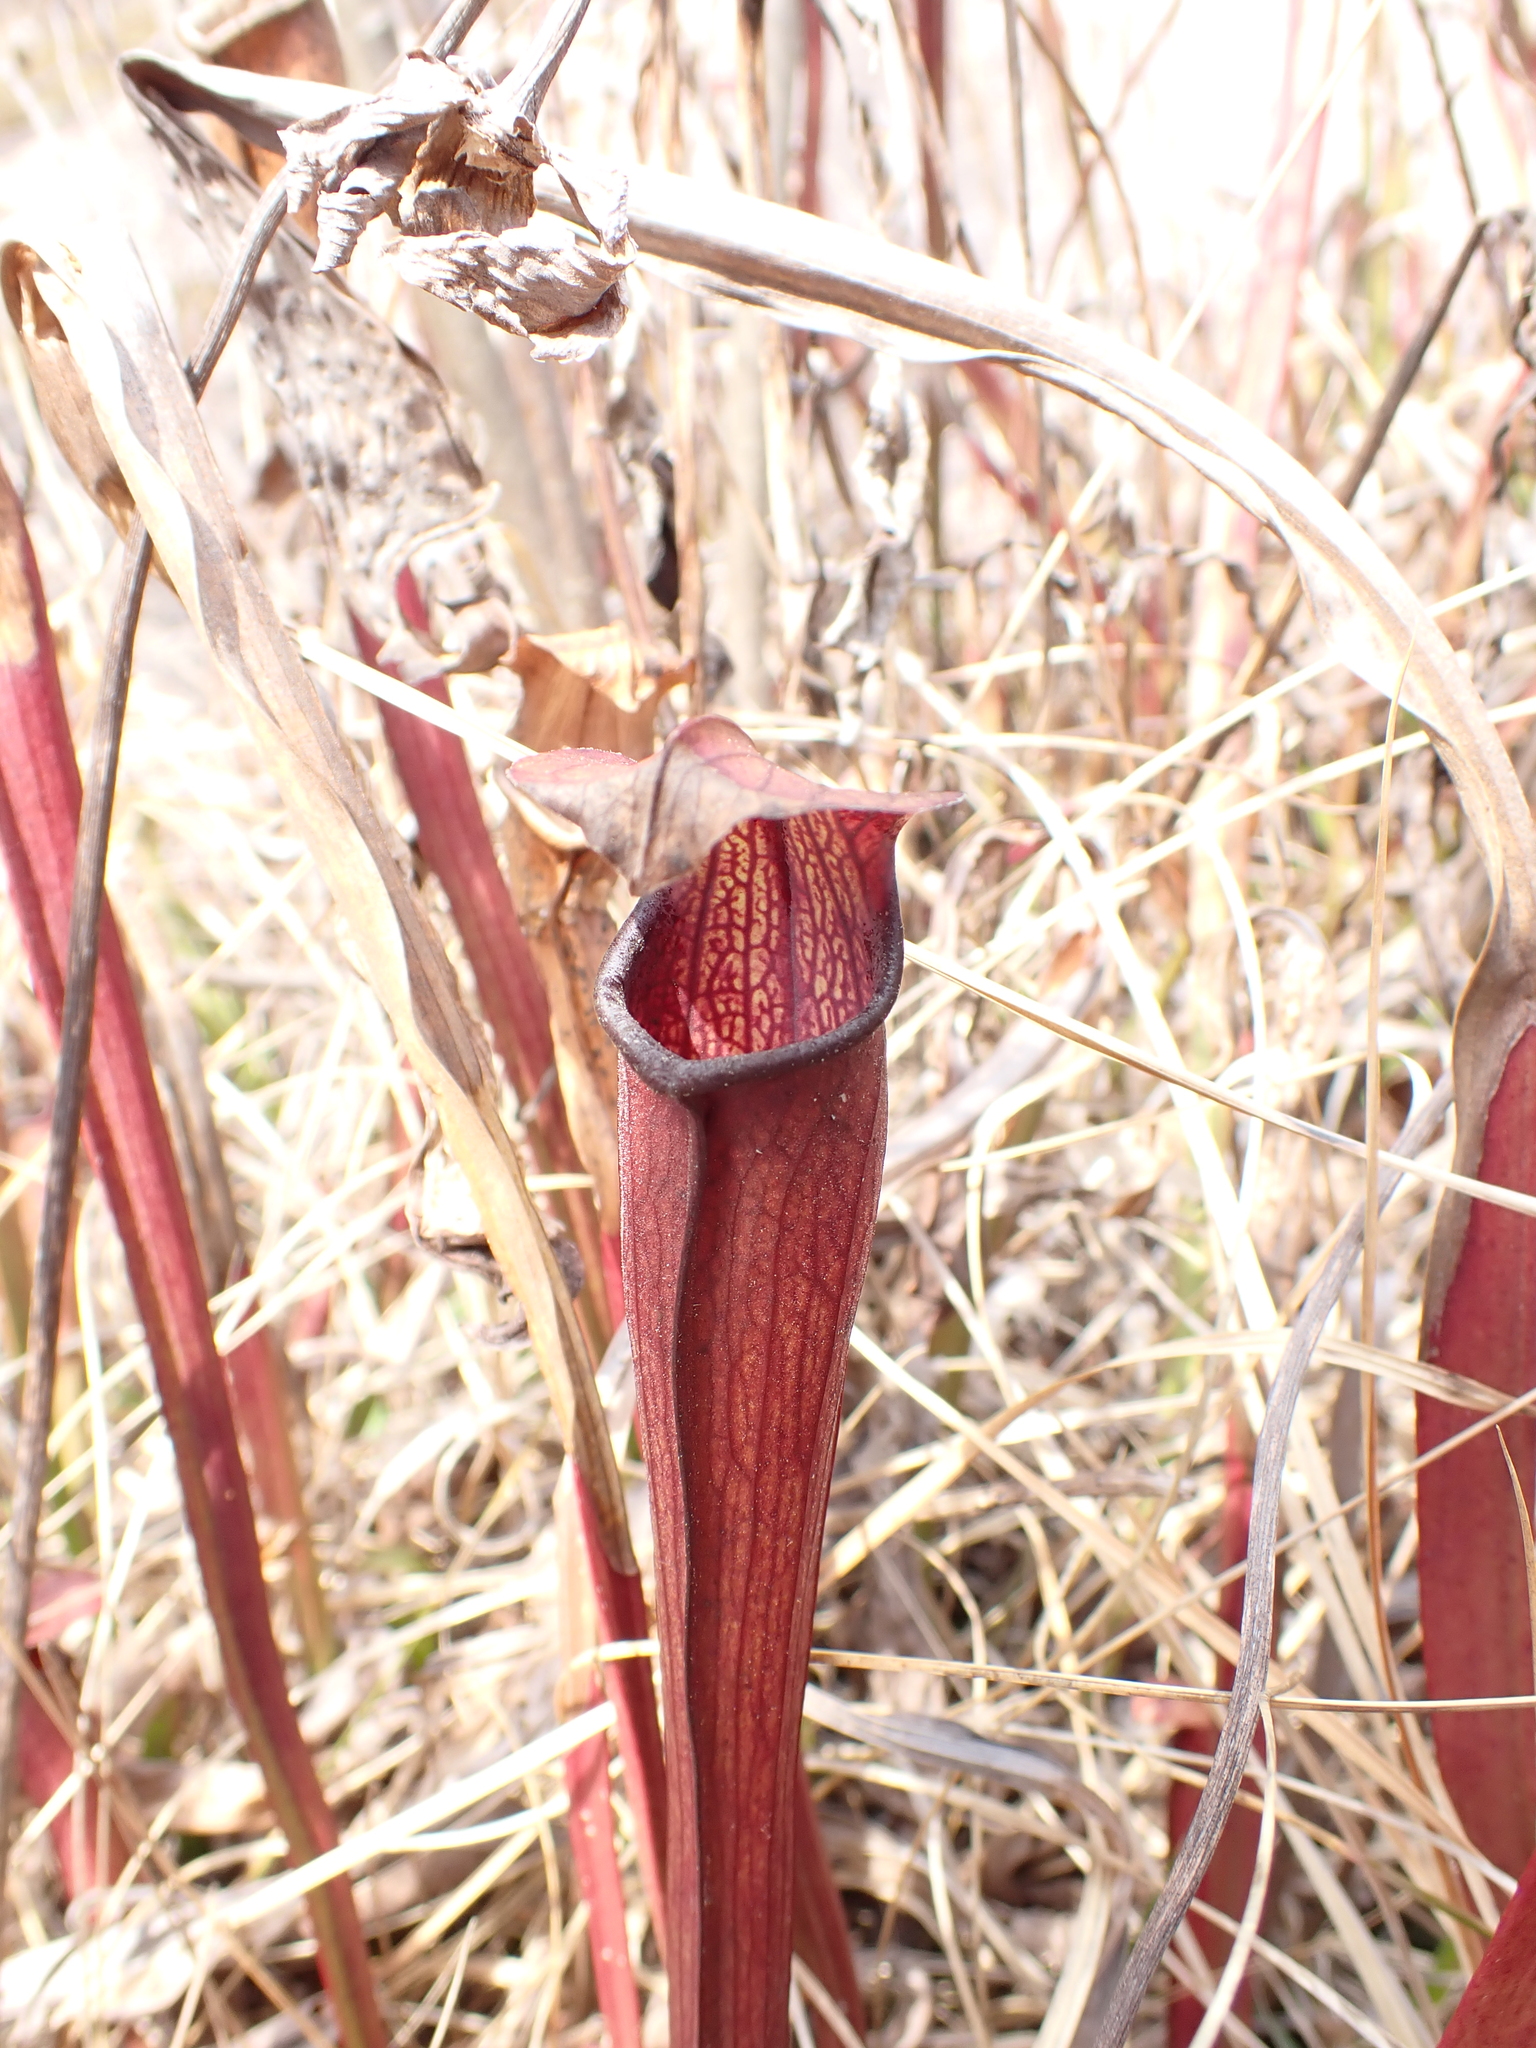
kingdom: Plantae
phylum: Tracheophyta
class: Magnoliopsida
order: Ericales
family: Sarraceniaceae
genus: Sarracenia
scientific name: Sarracenia jonesii
